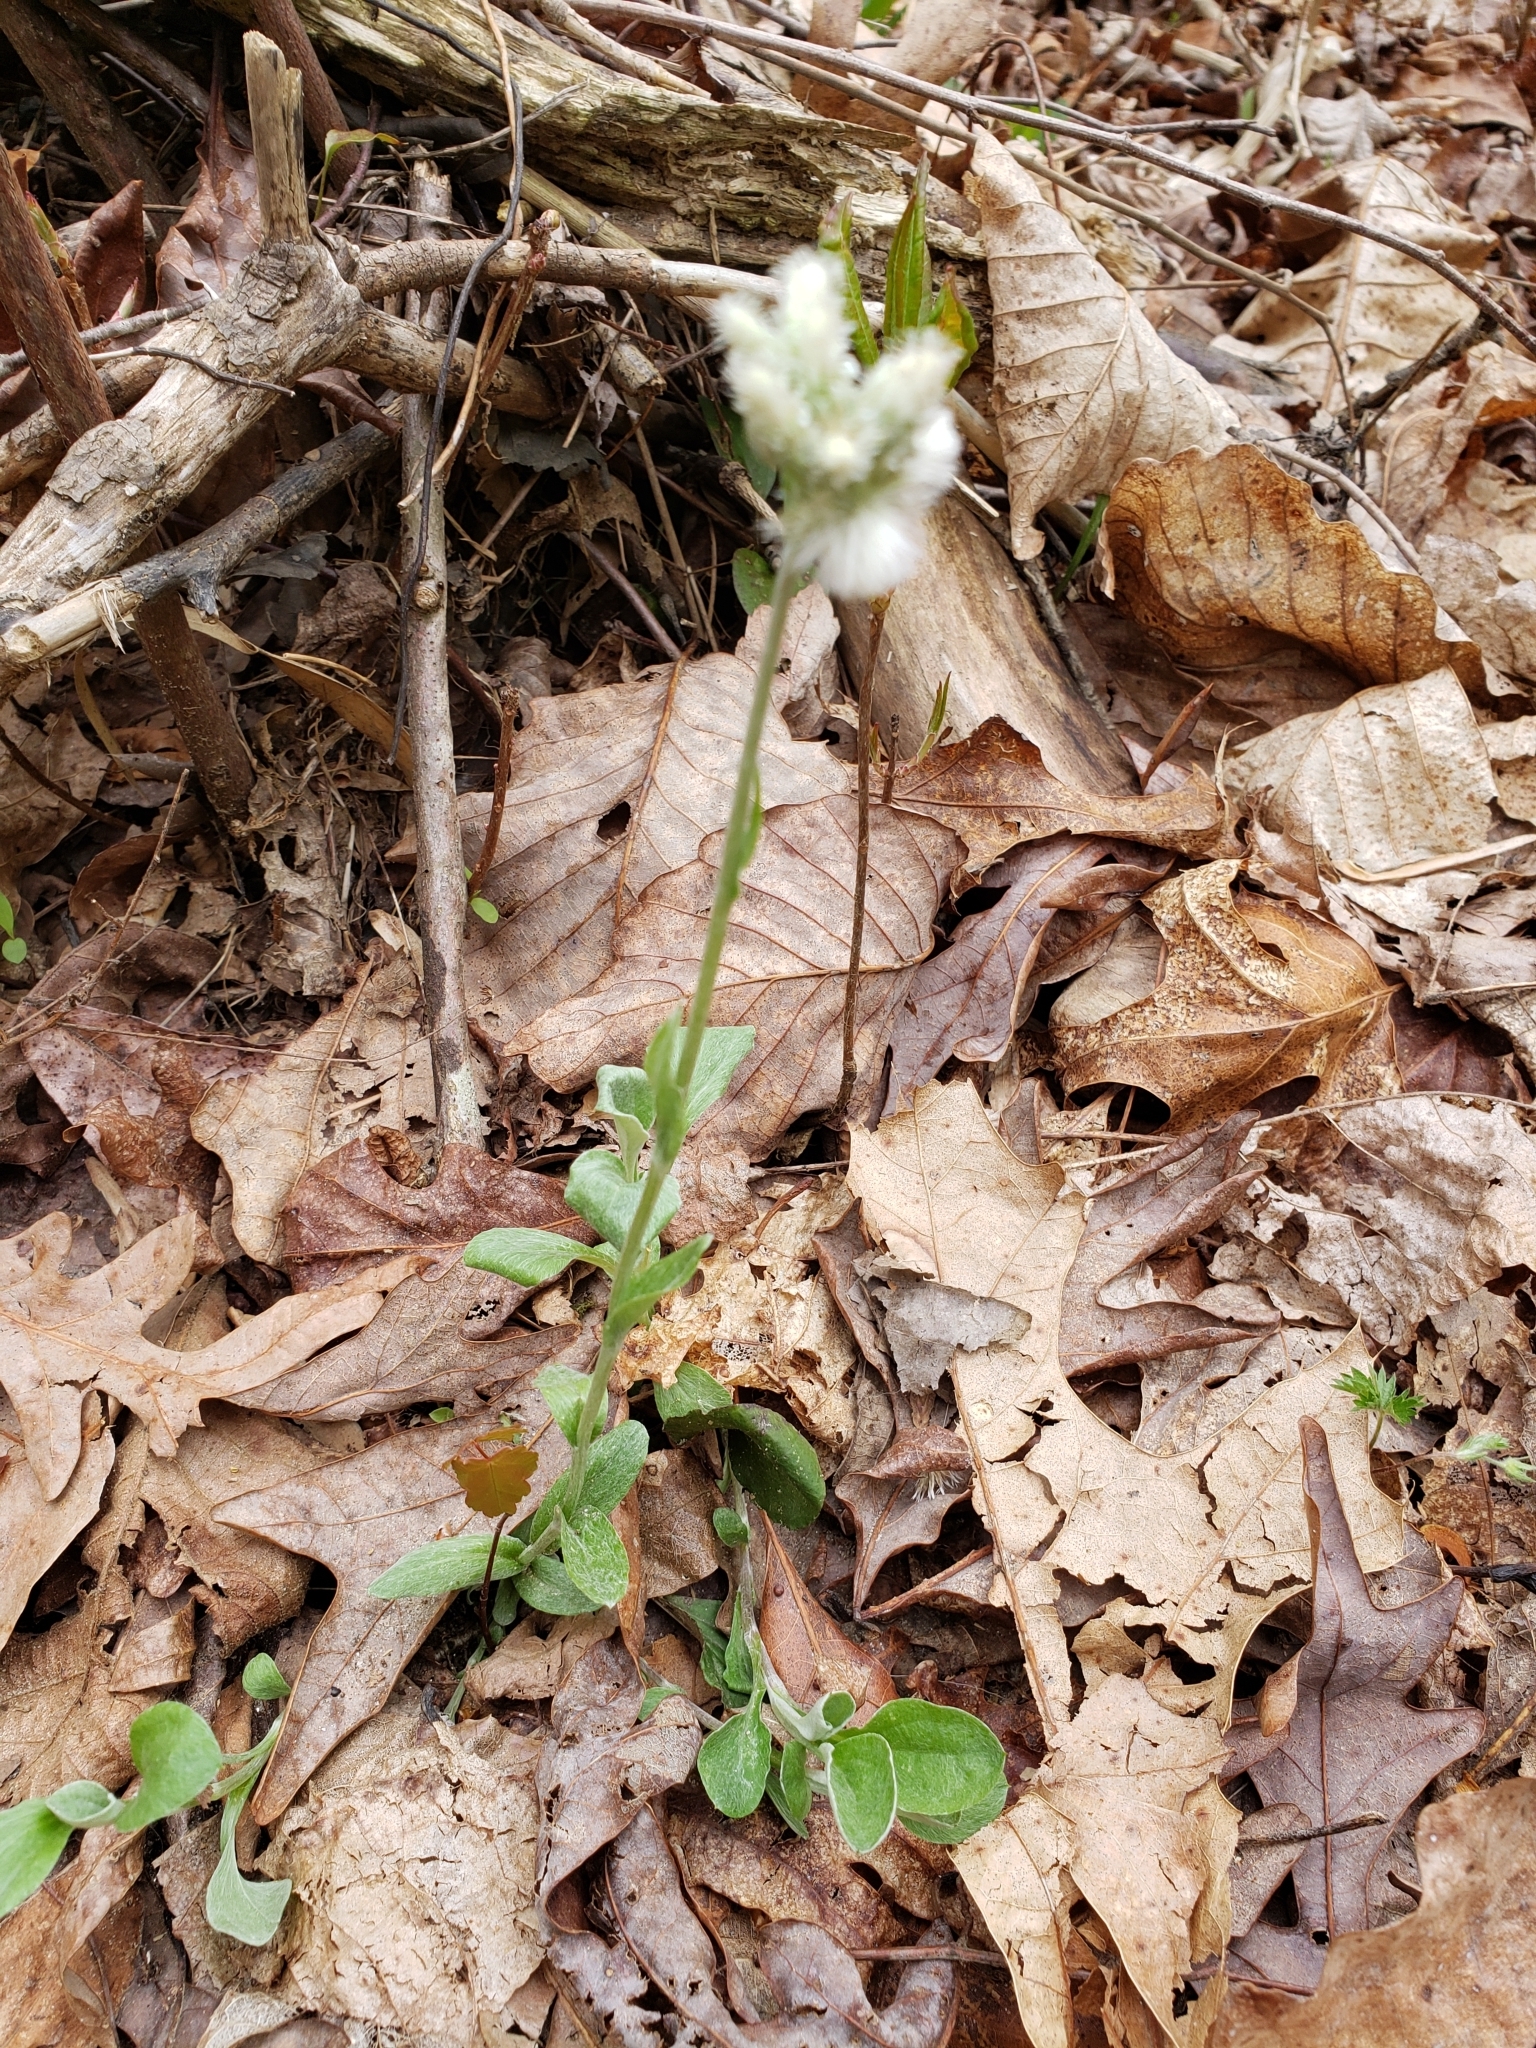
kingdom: Plantae
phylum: Tracheophyta
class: Magnoliopsida
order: Asterales
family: Asteraceae
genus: Antennaria
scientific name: Antennaria plantaginifolia
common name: Plantain-leaved pussytoes
